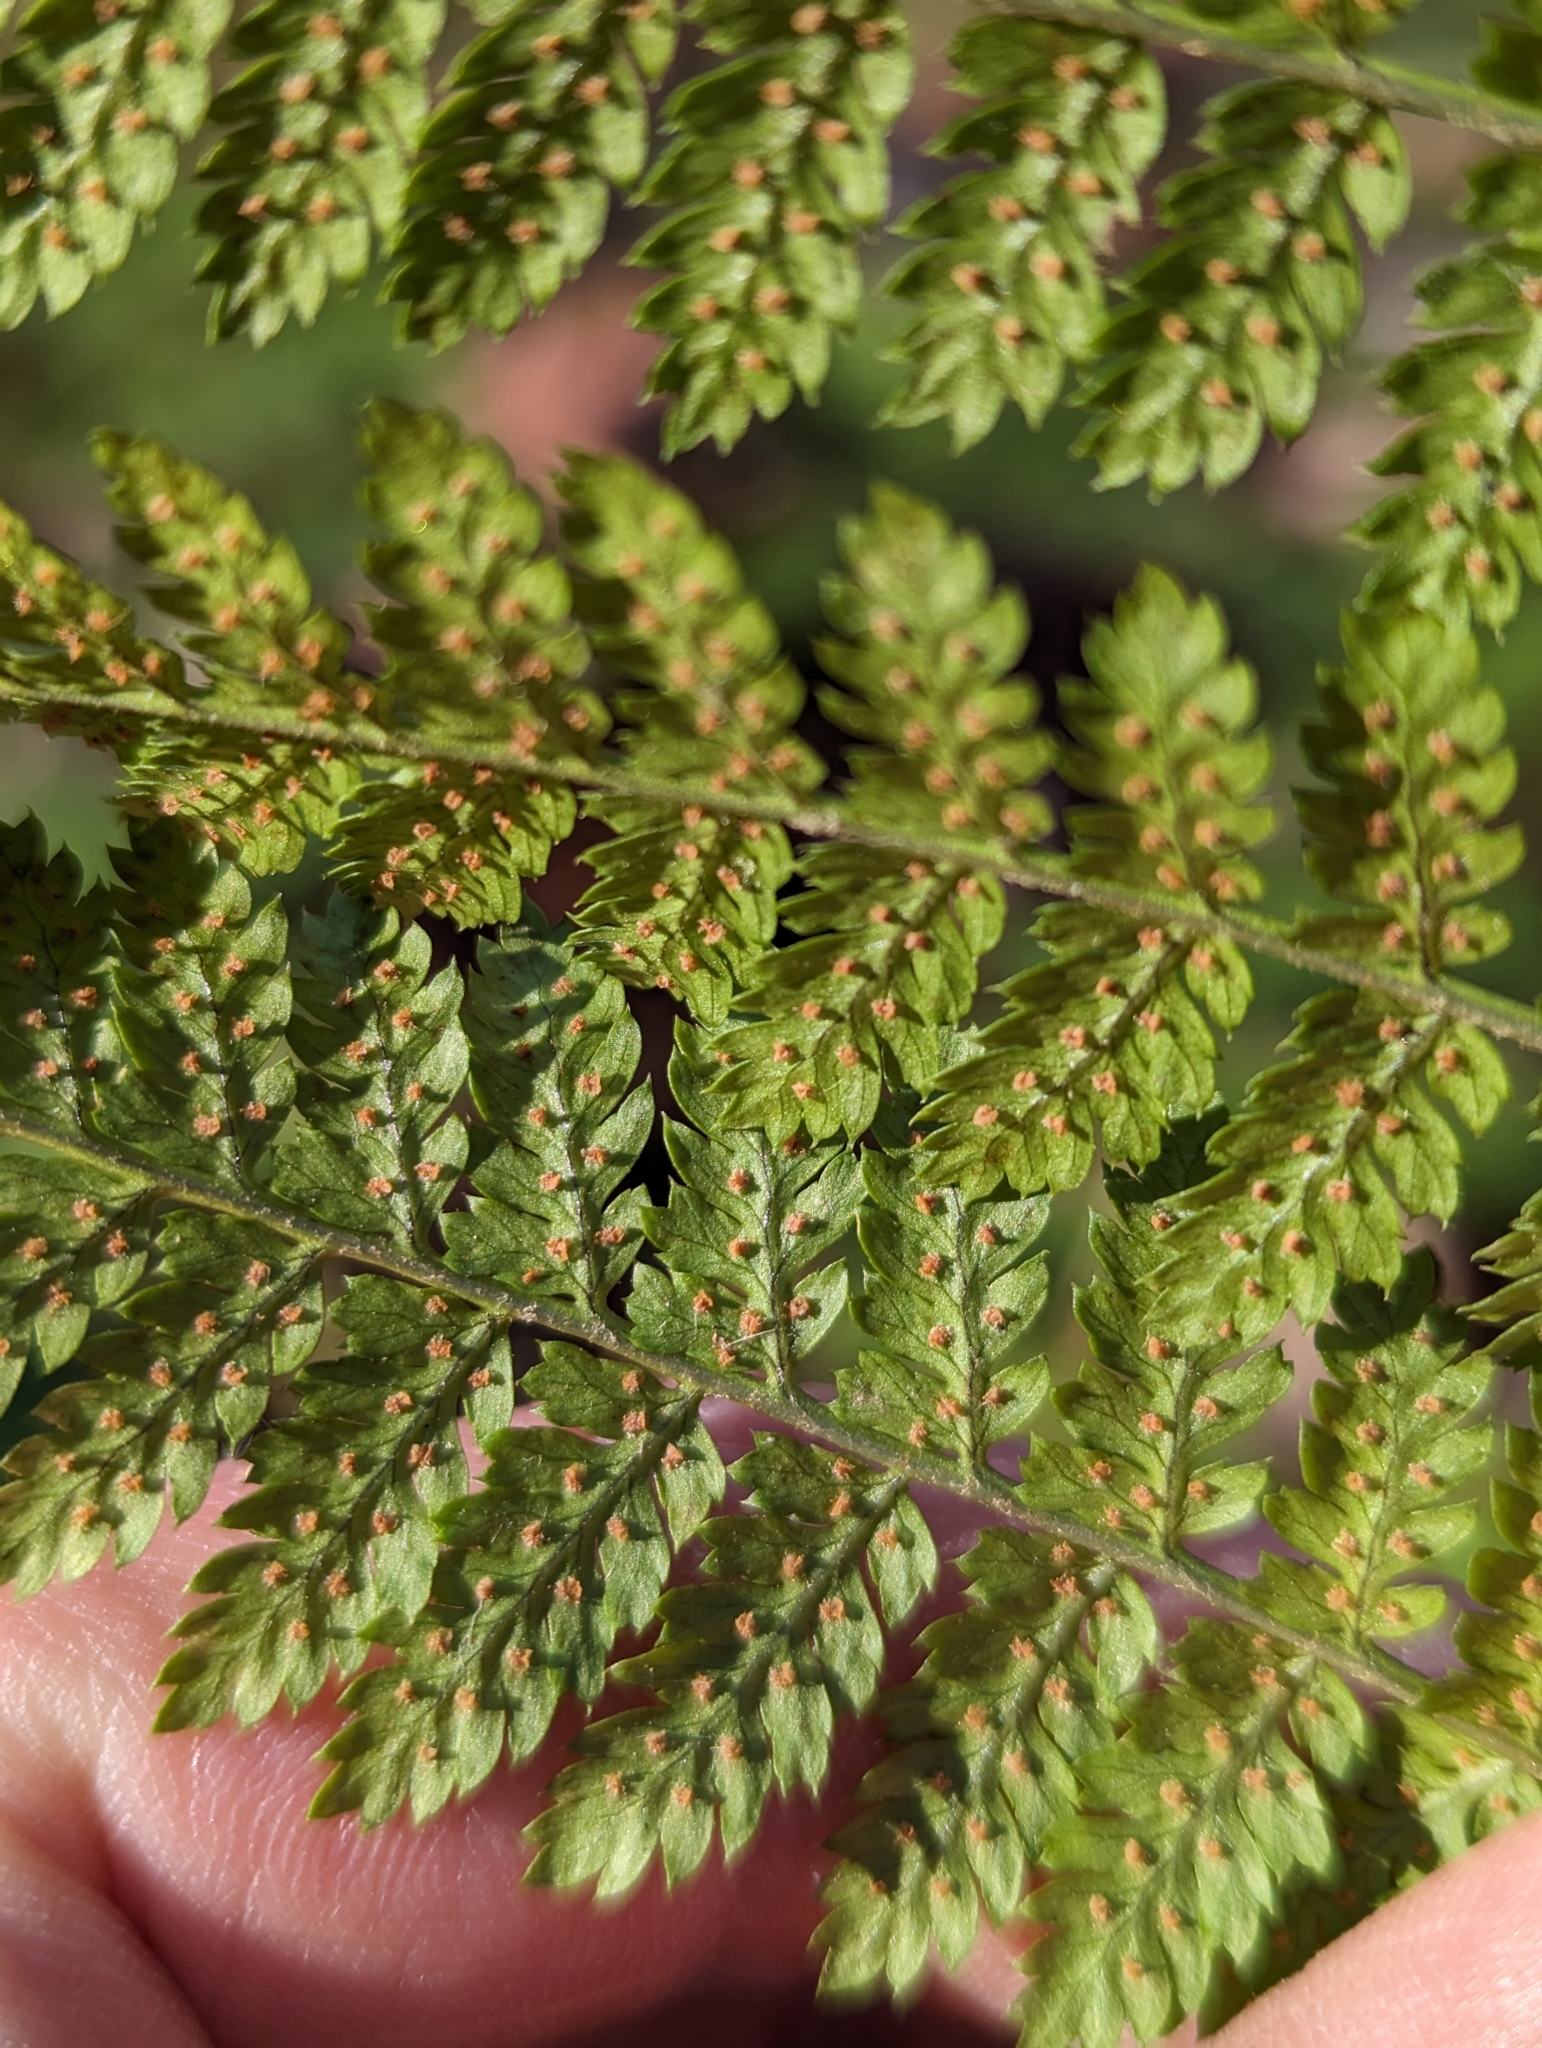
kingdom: Plantae
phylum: Tracheophyta
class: Polypodiopsida
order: Polypodiales
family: Dryopteridaceae
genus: Dryopteris
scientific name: Dryopteris intermedia
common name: Evergreen wood fern
